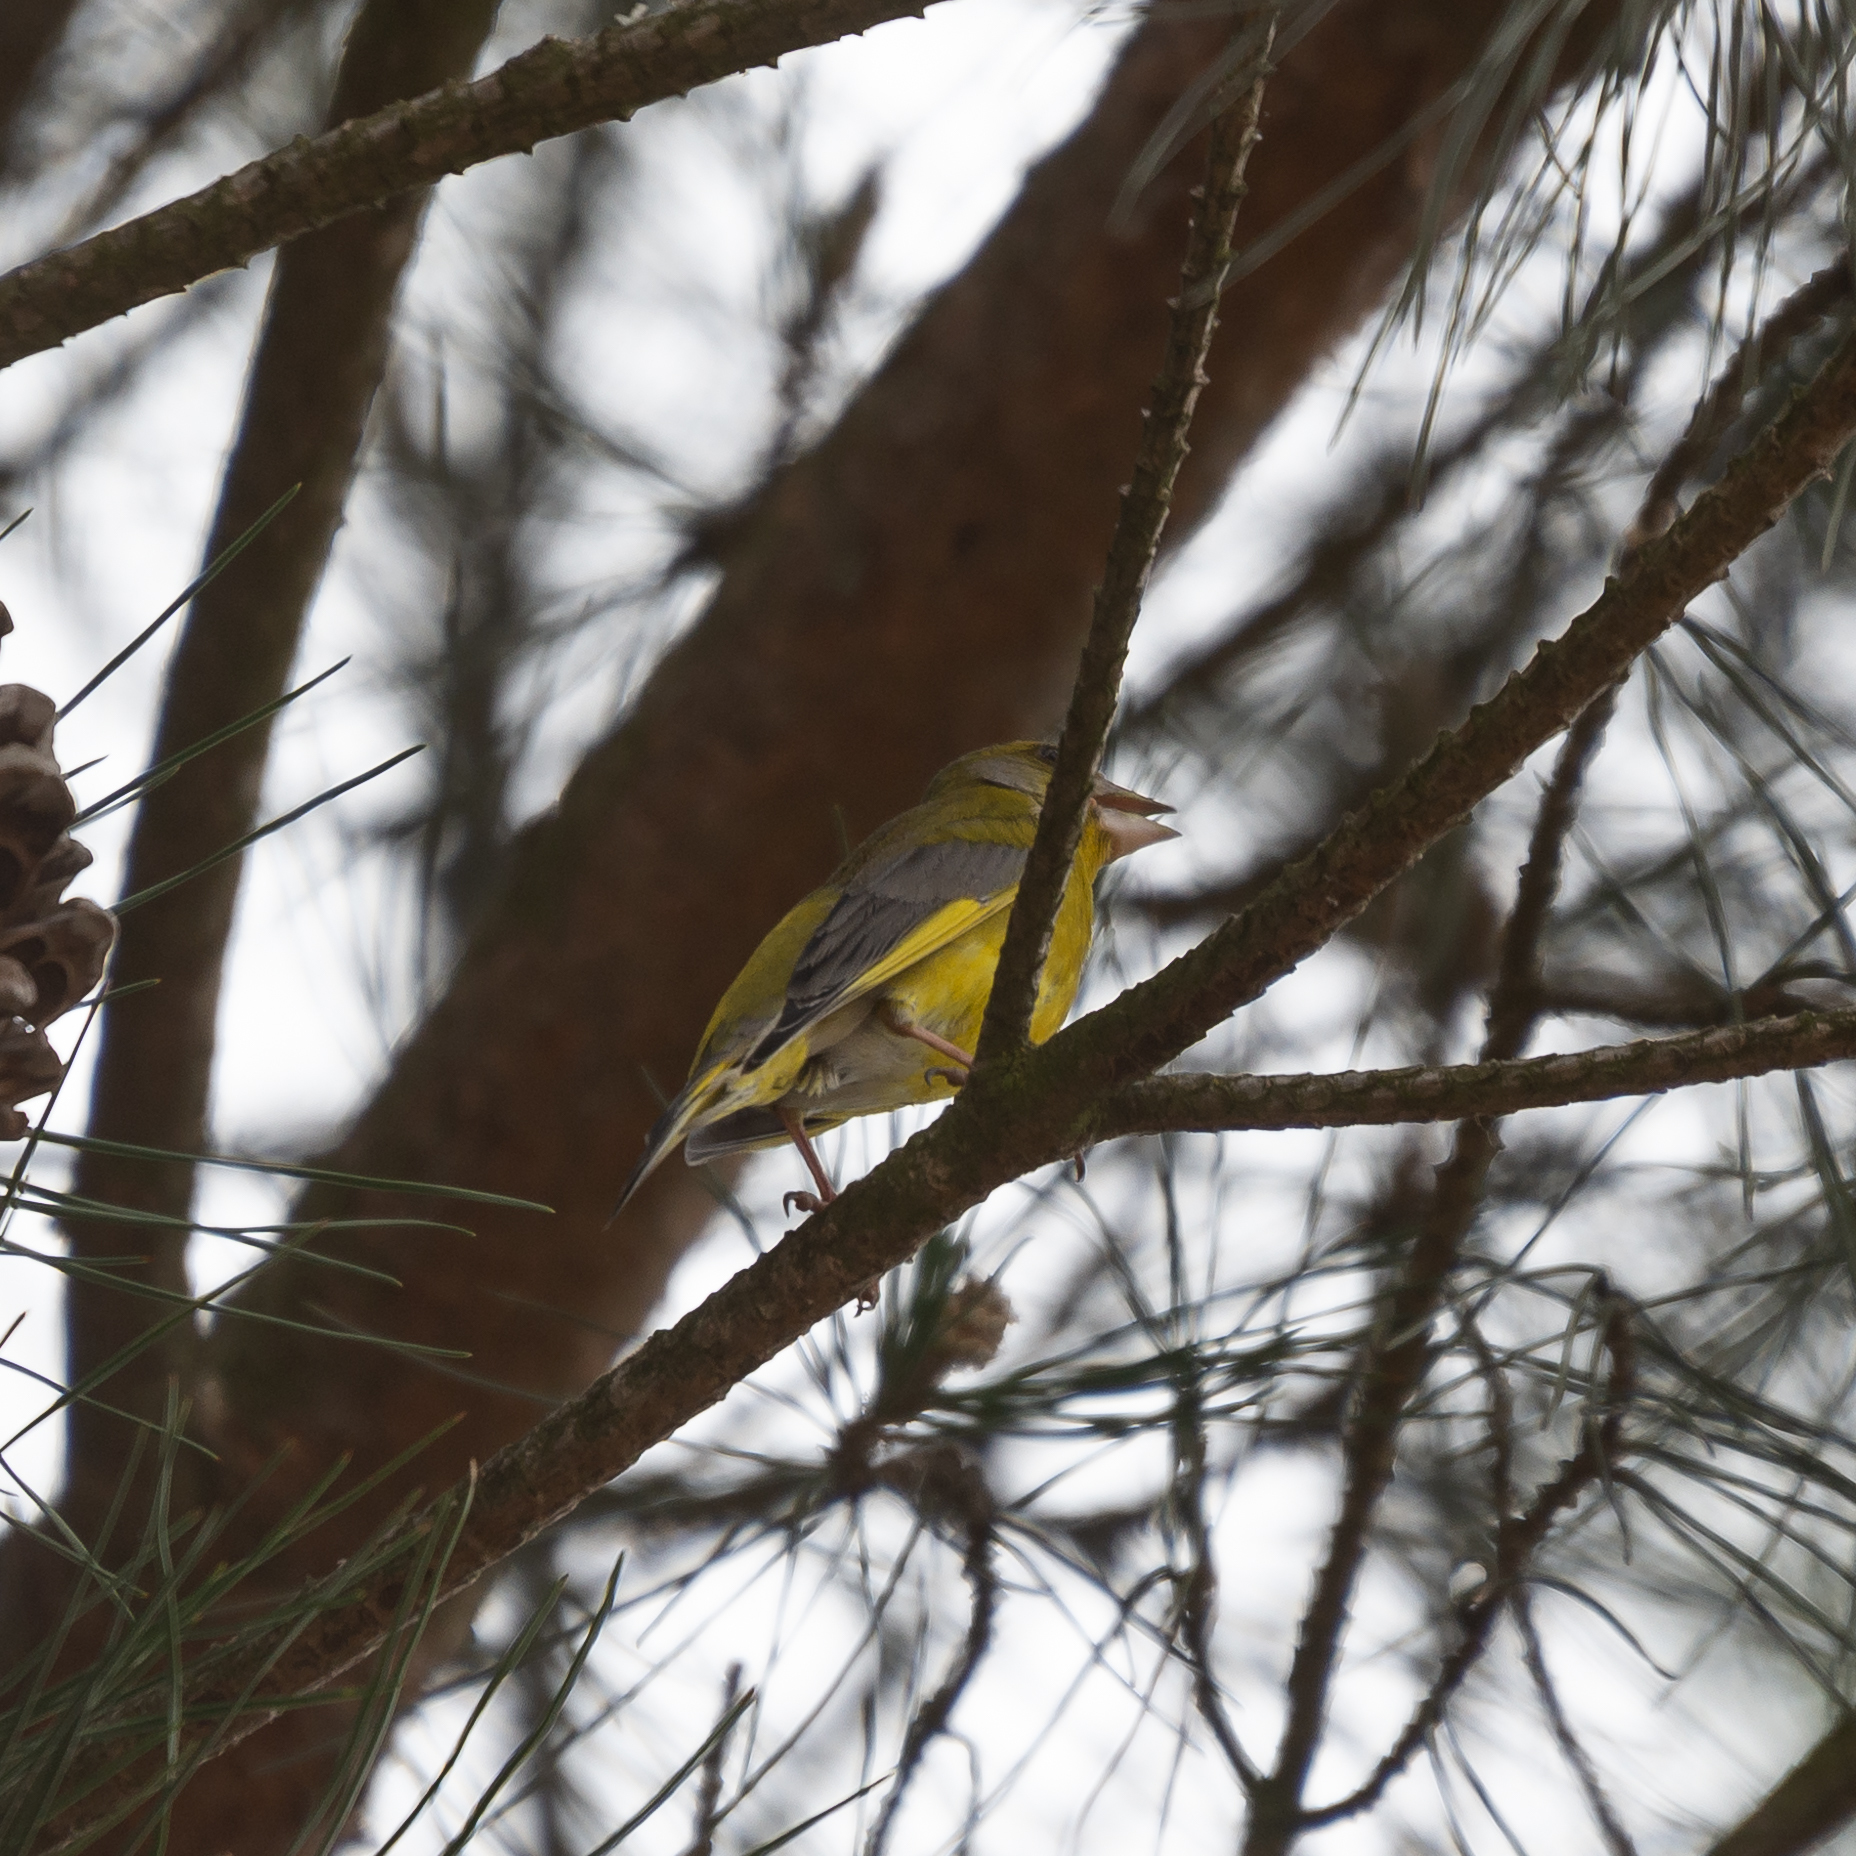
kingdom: Plantae
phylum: Tracheophyta
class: Liliopsida
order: Poales
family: Poaceae
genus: Chloris
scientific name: Chloris chloris
